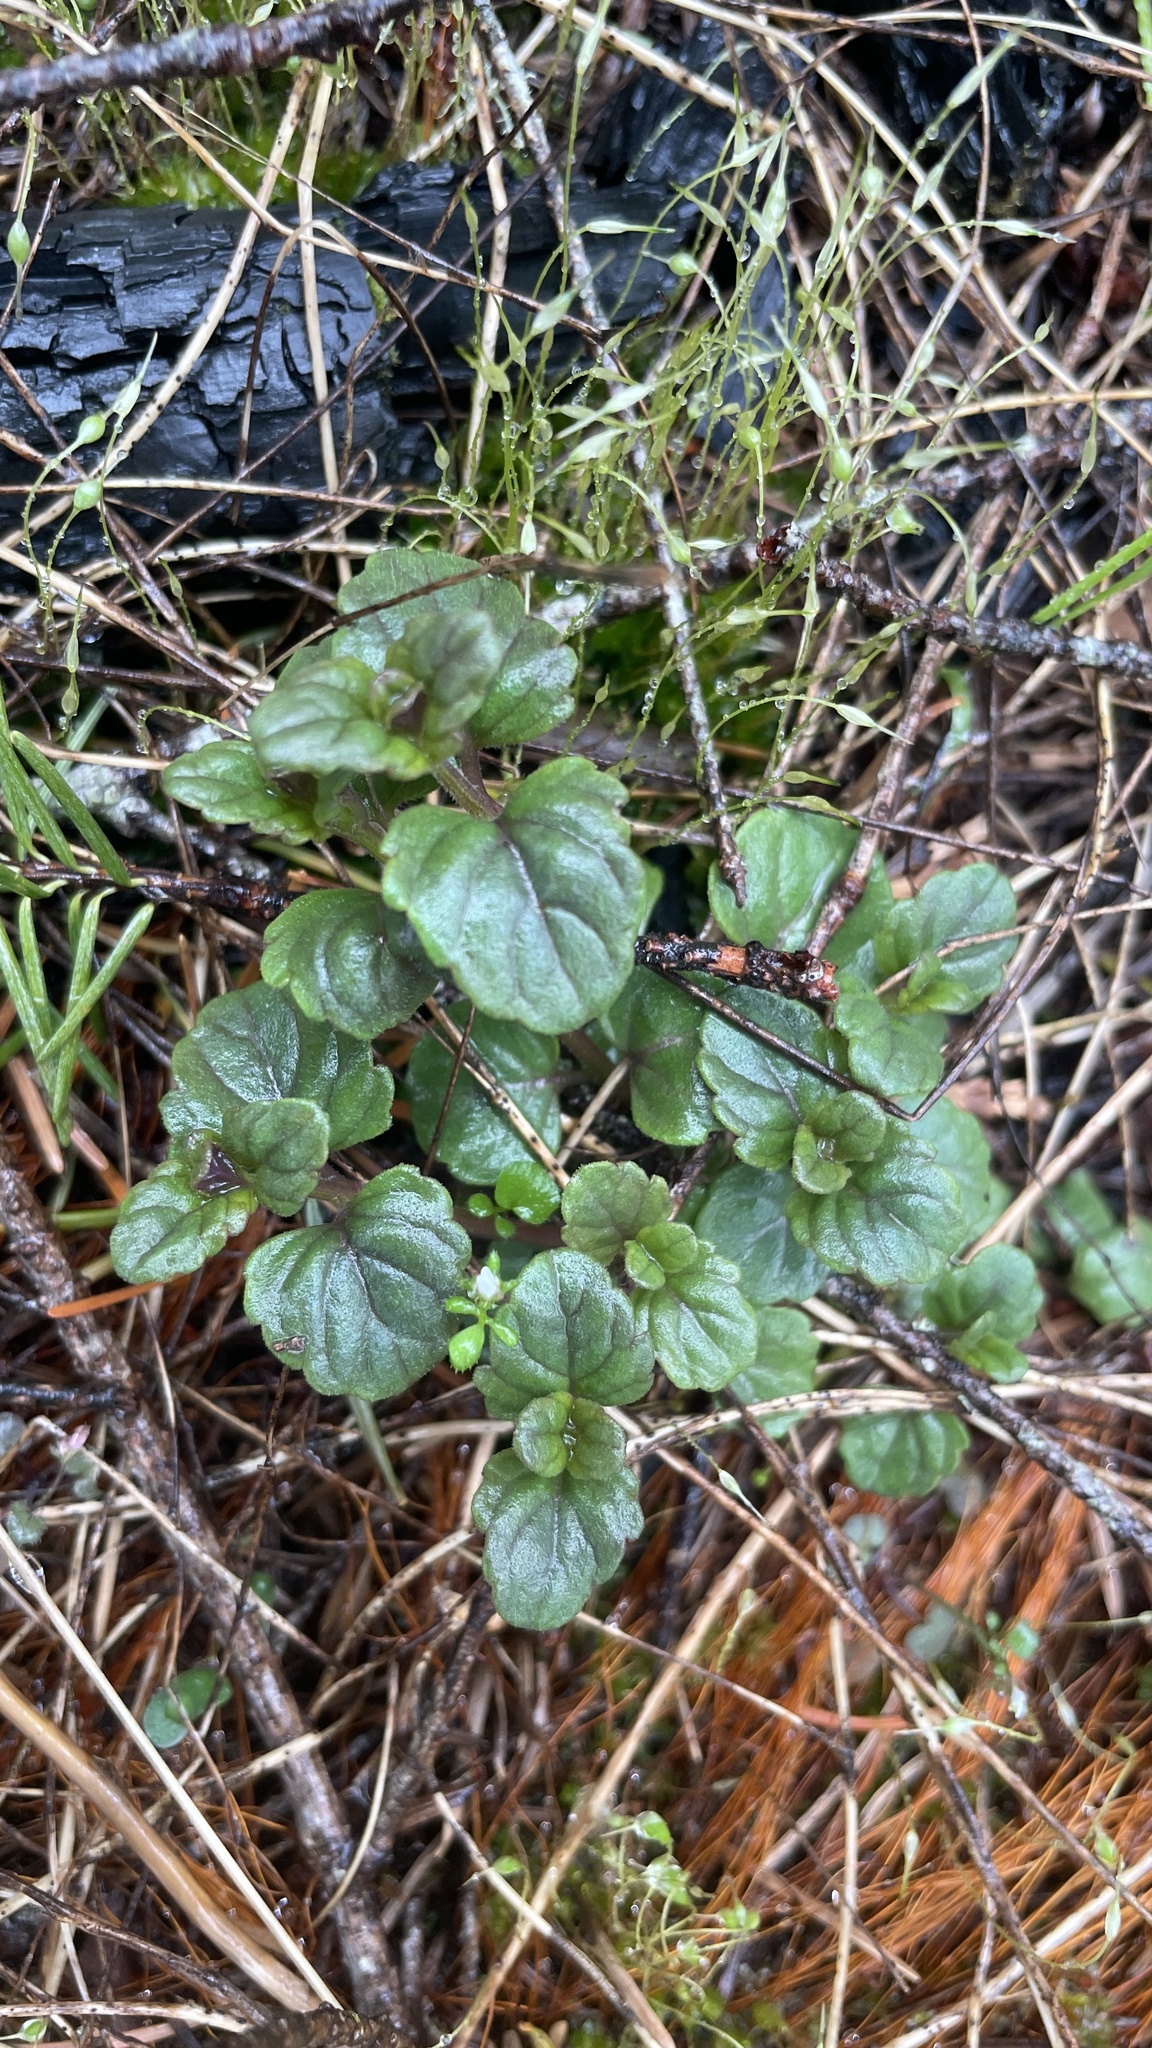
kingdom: Plantae
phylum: Tracheophyta
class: Magnoliopsida
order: Lamiales
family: Lamiaceae
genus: Micromeria
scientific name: Micromeria douglasii
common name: Yerba buena
